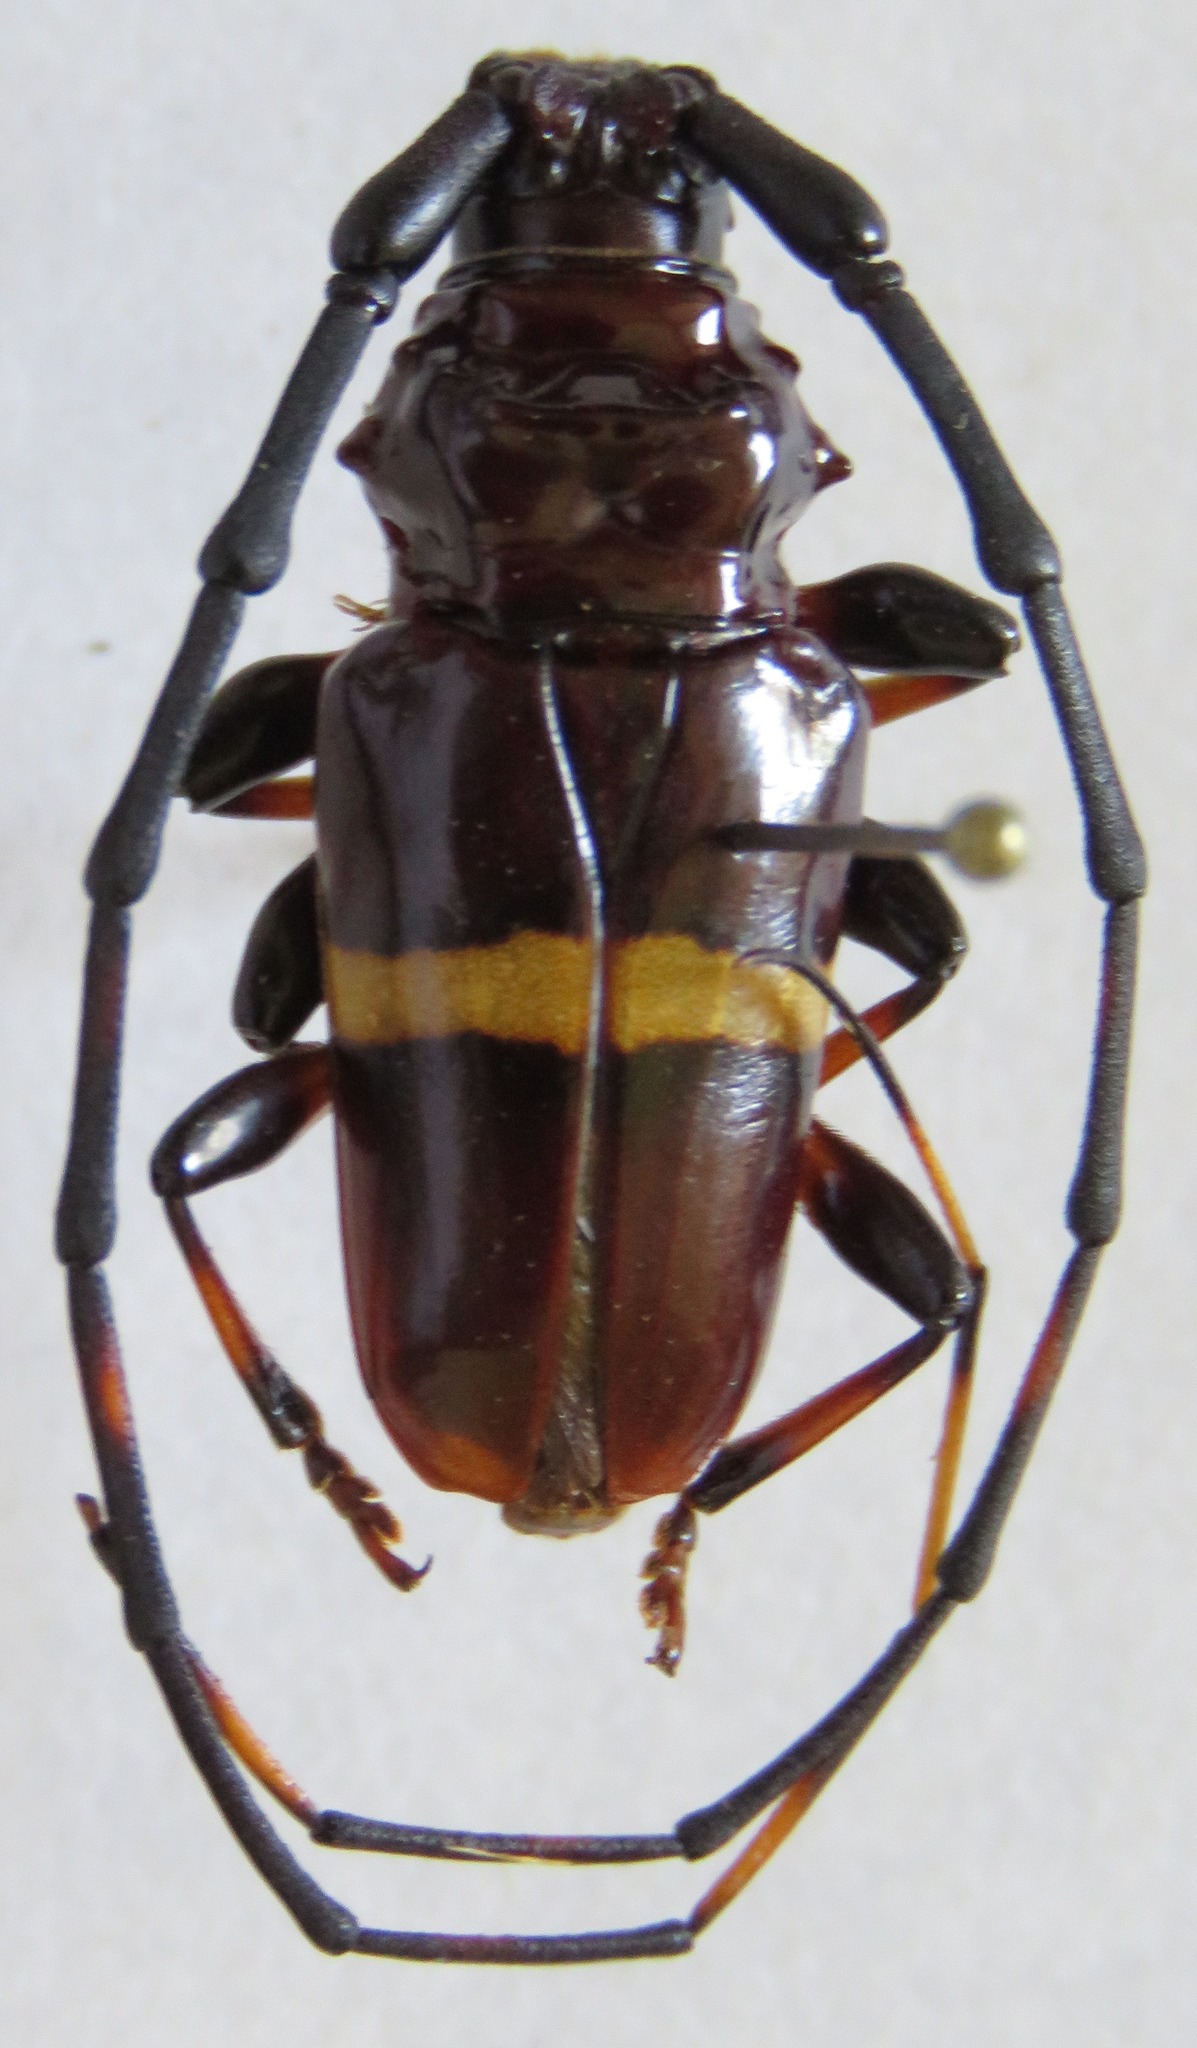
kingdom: Animalia
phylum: Arthropoda
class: Insecta
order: Coleoptera
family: Cerambycidae
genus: Trachyderes
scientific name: Trachyderes succinctus
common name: Mango longhorn
